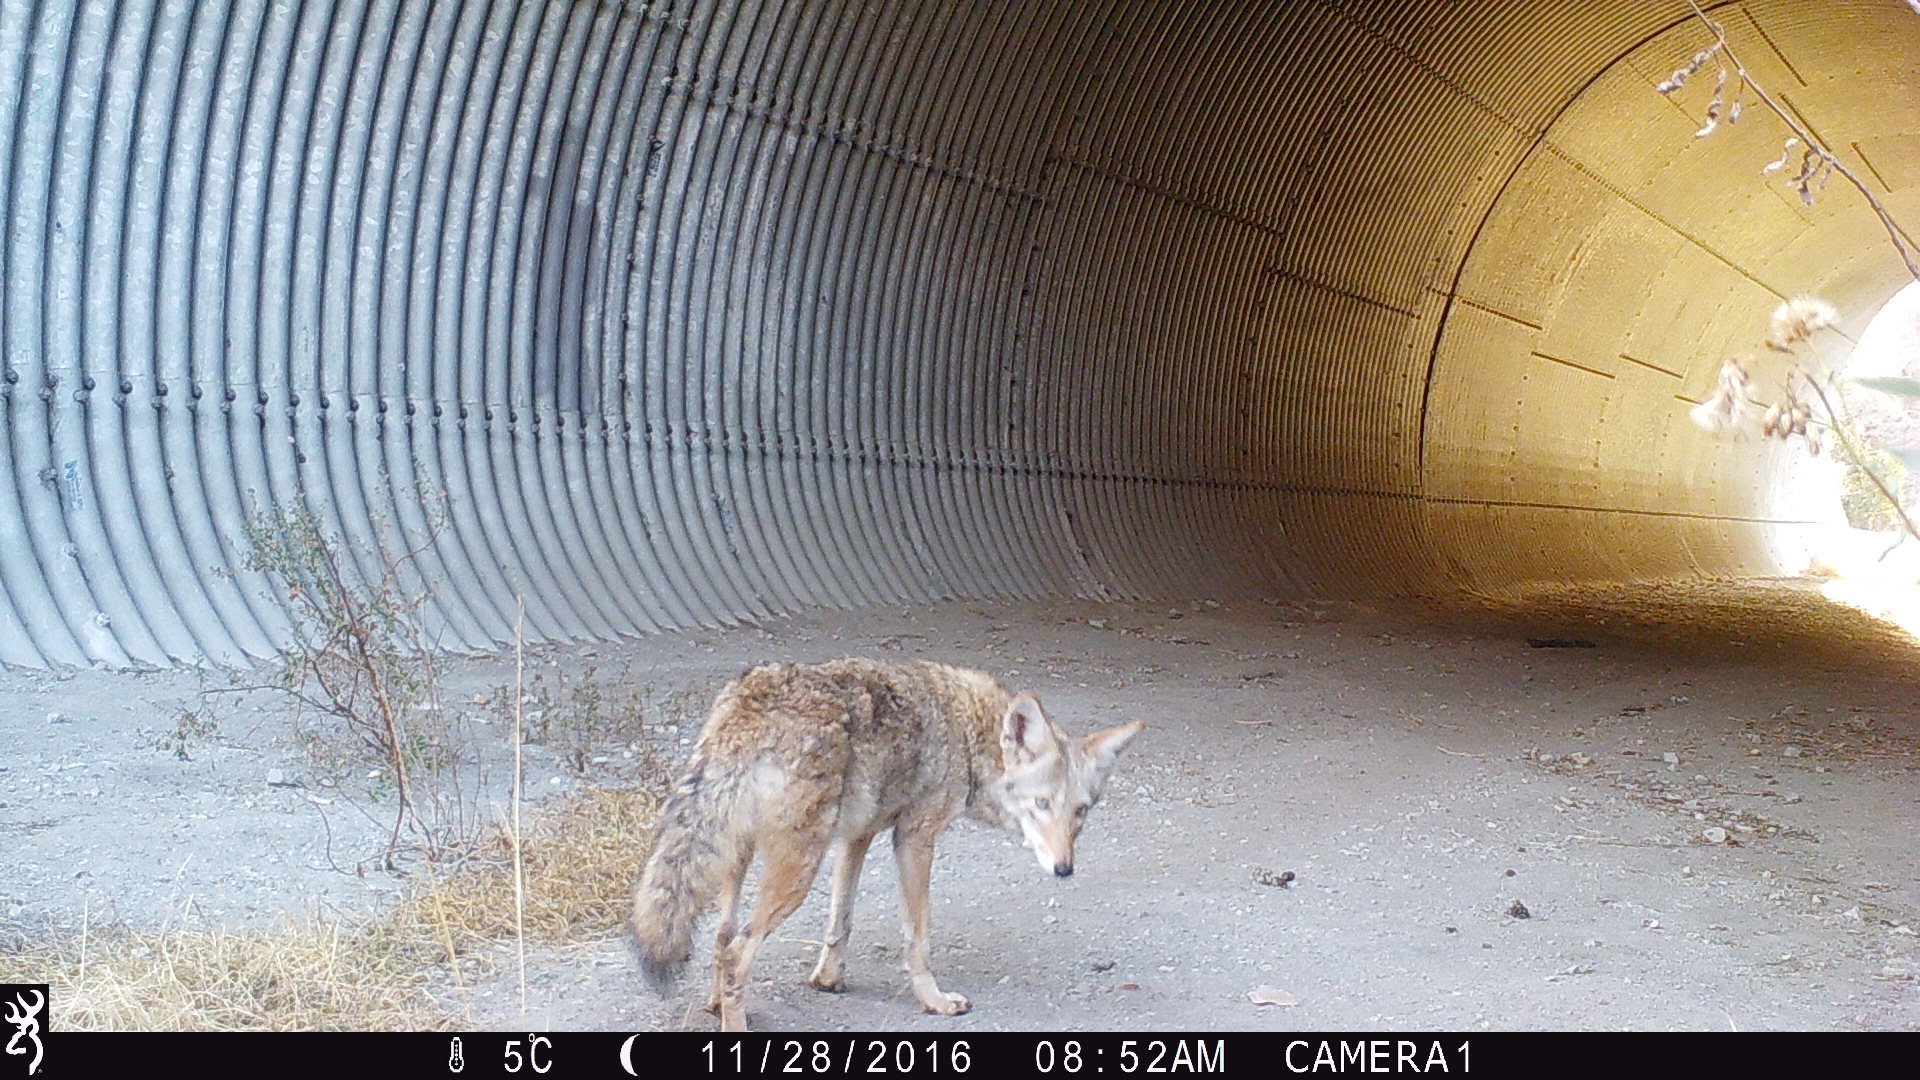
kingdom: Animalia
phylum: Chordata
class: Mammalia
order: Carnivora
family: Canidae
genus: Canis
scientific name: Canis latrans
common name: Coyote
